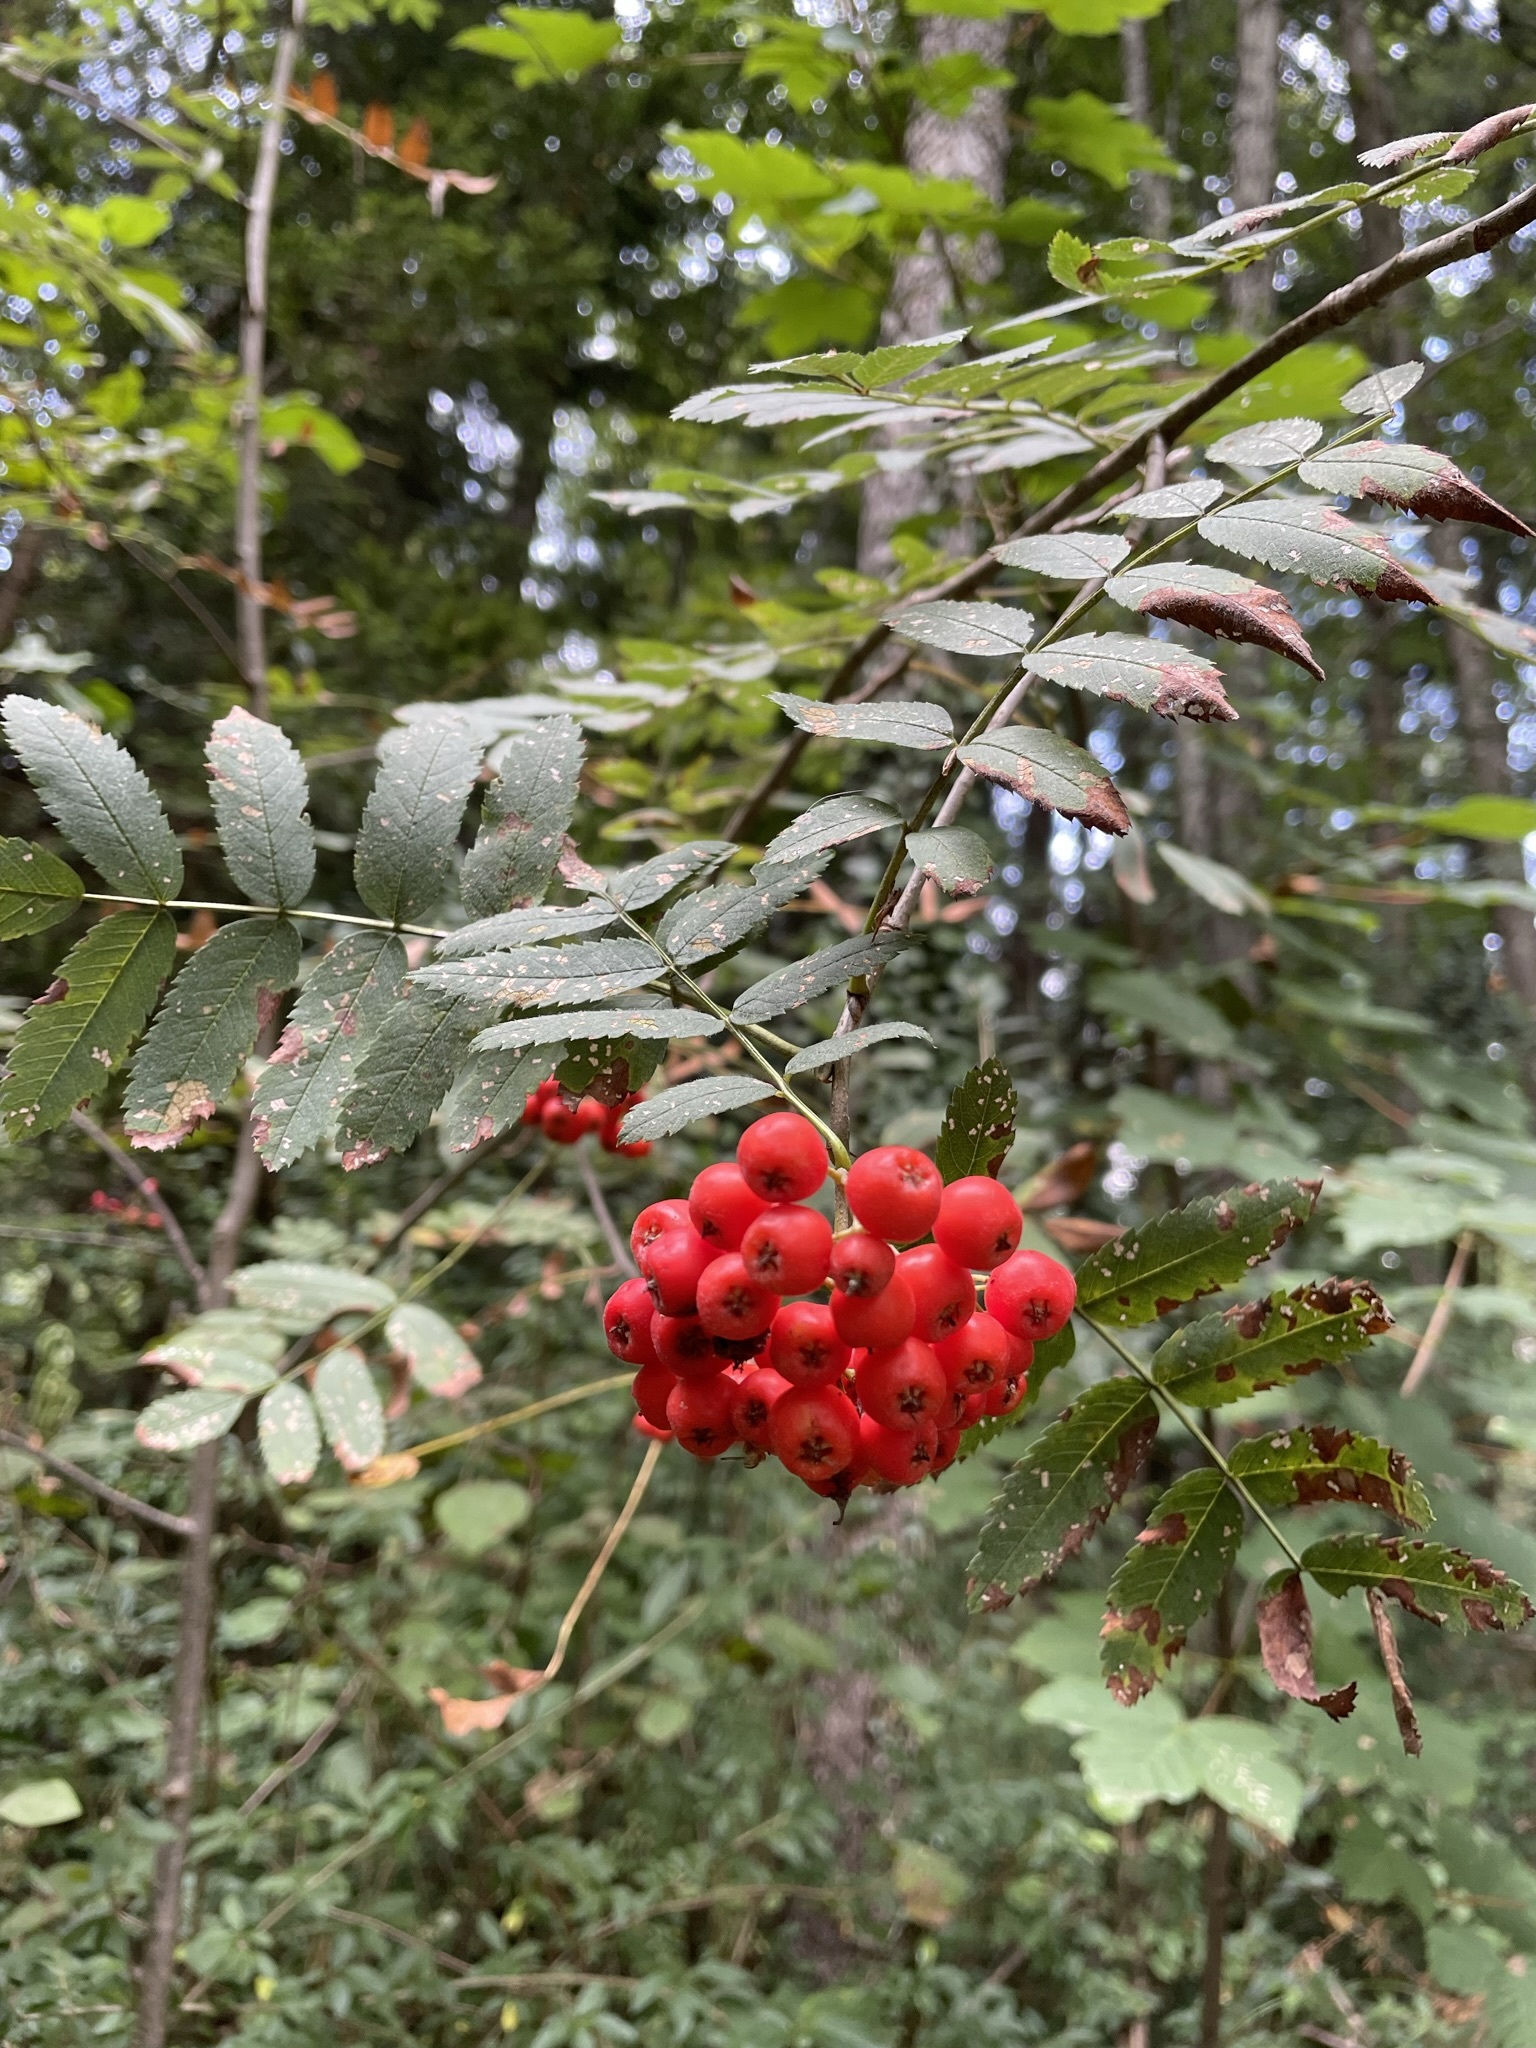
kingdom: Plantae
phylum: Tracheophyta
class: Magnoliopsida
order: Rosales
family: Rosaceae
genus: Sorbus
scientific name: Sorbus aucuparia
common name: Rowan
